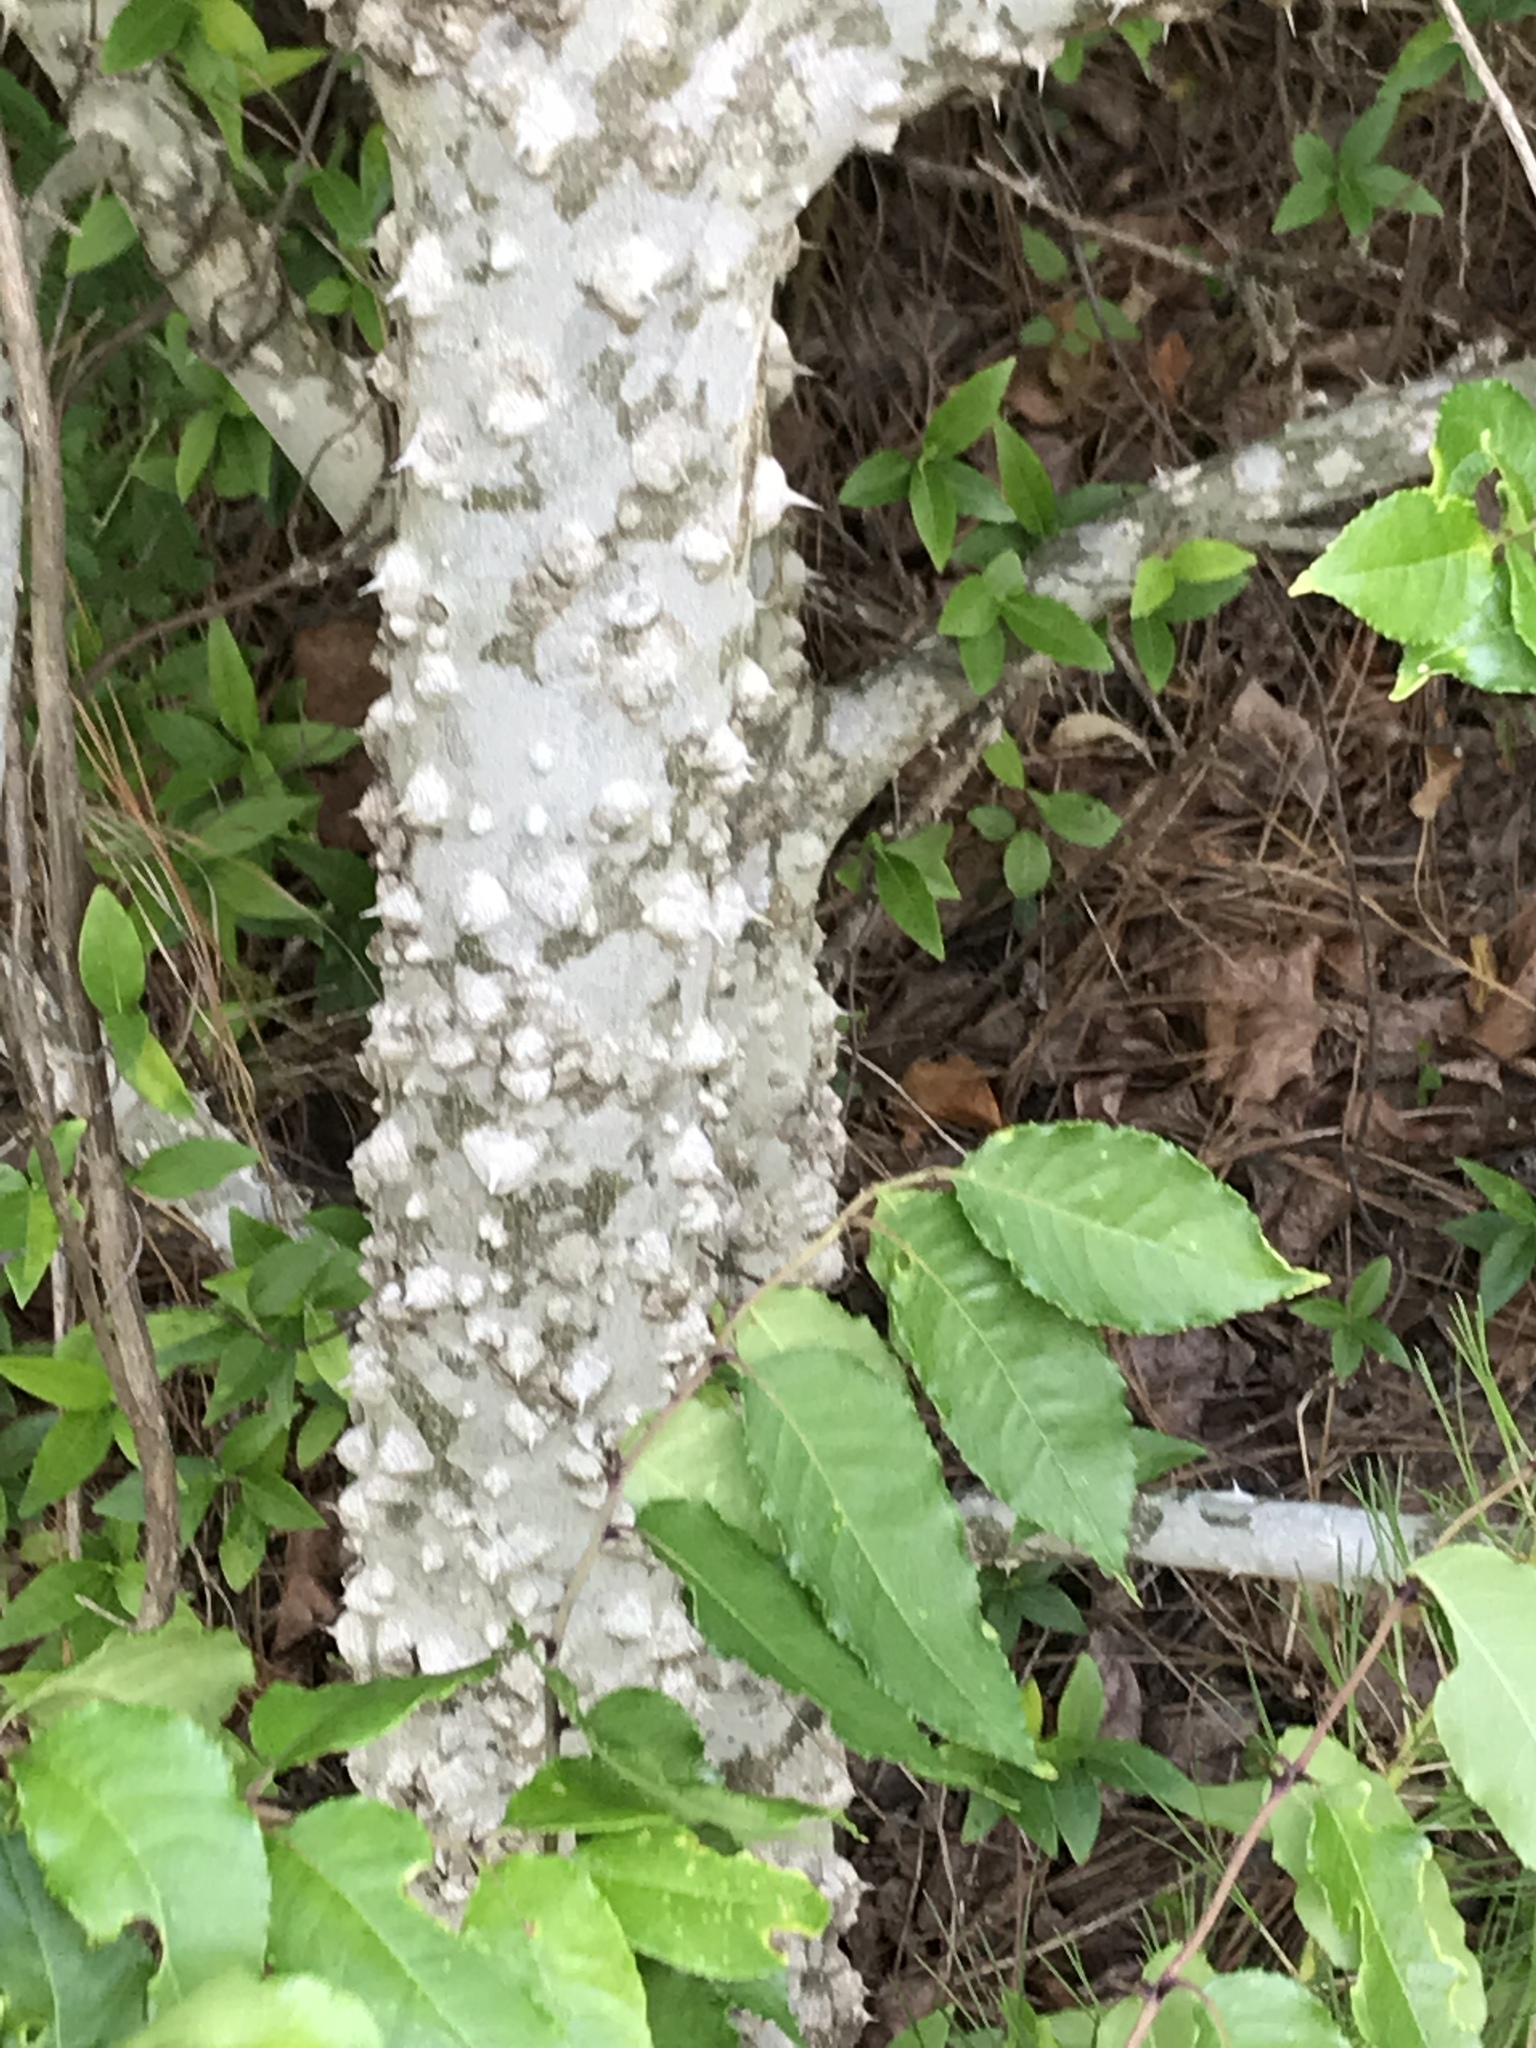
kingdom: Plantae
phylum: Tracheophyta
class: Magnoliopsida
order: Sapindales
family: Rutaceae
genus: Zanthoxylum
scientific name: Zanthoxylum clava-herculis
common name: Hercules'-club
